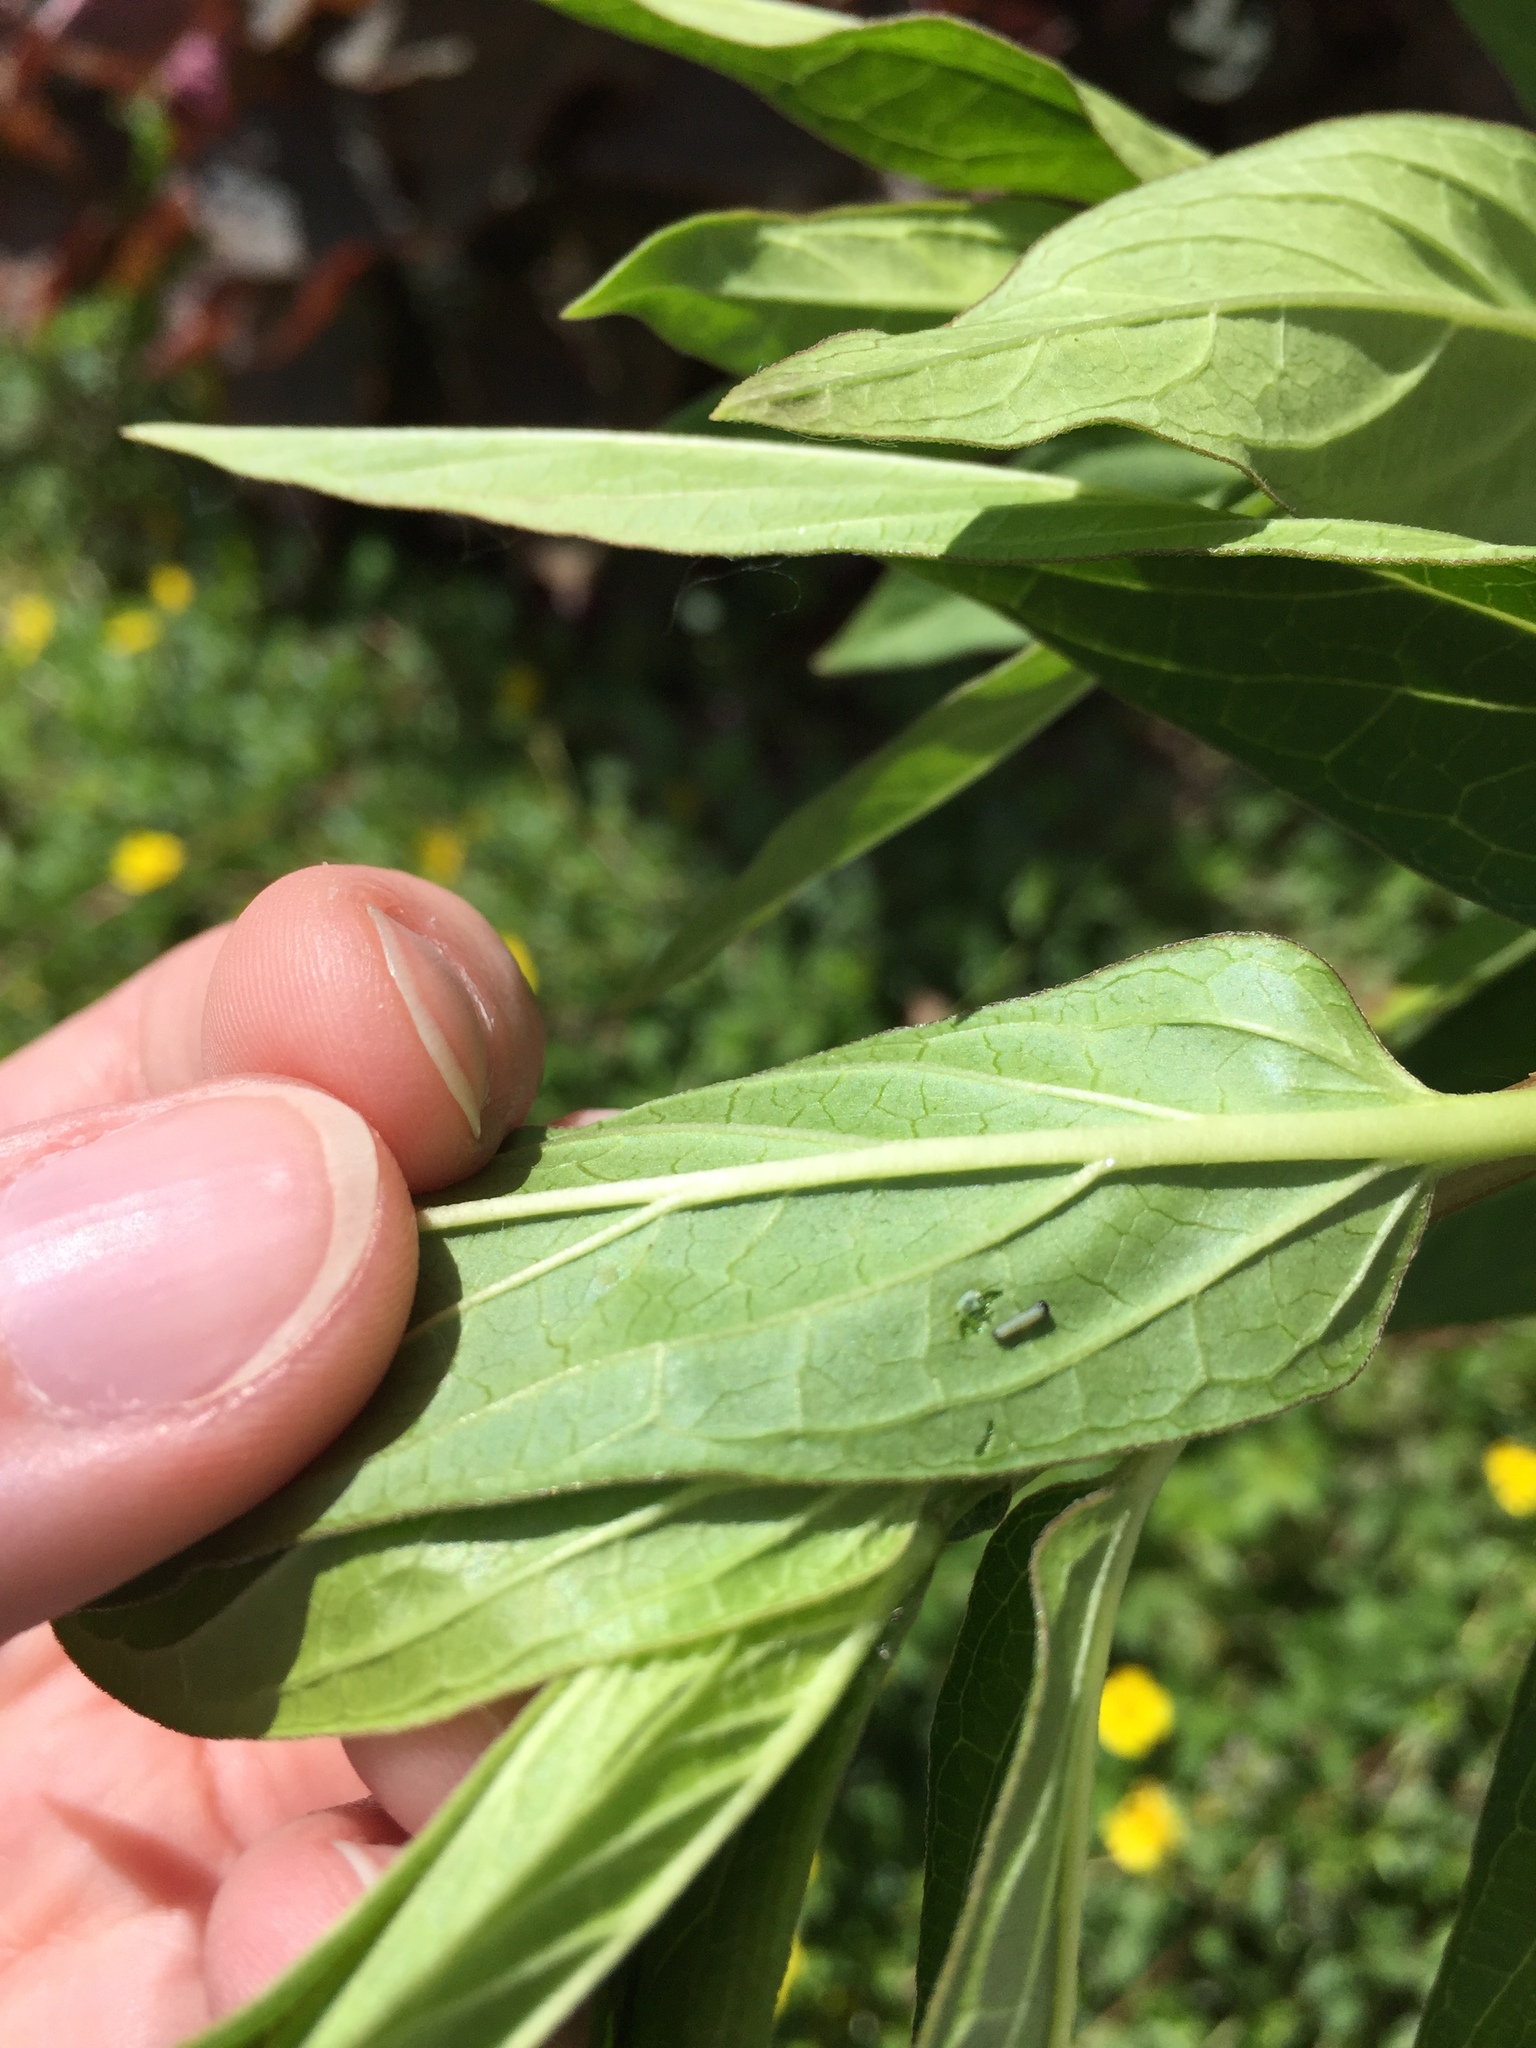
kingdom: Animalia
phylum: Arthropoda
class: Insecta
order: Lepidoptera
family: Nymphalidae
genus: Danaus
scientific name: Danaus plexippus
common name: Monarch
